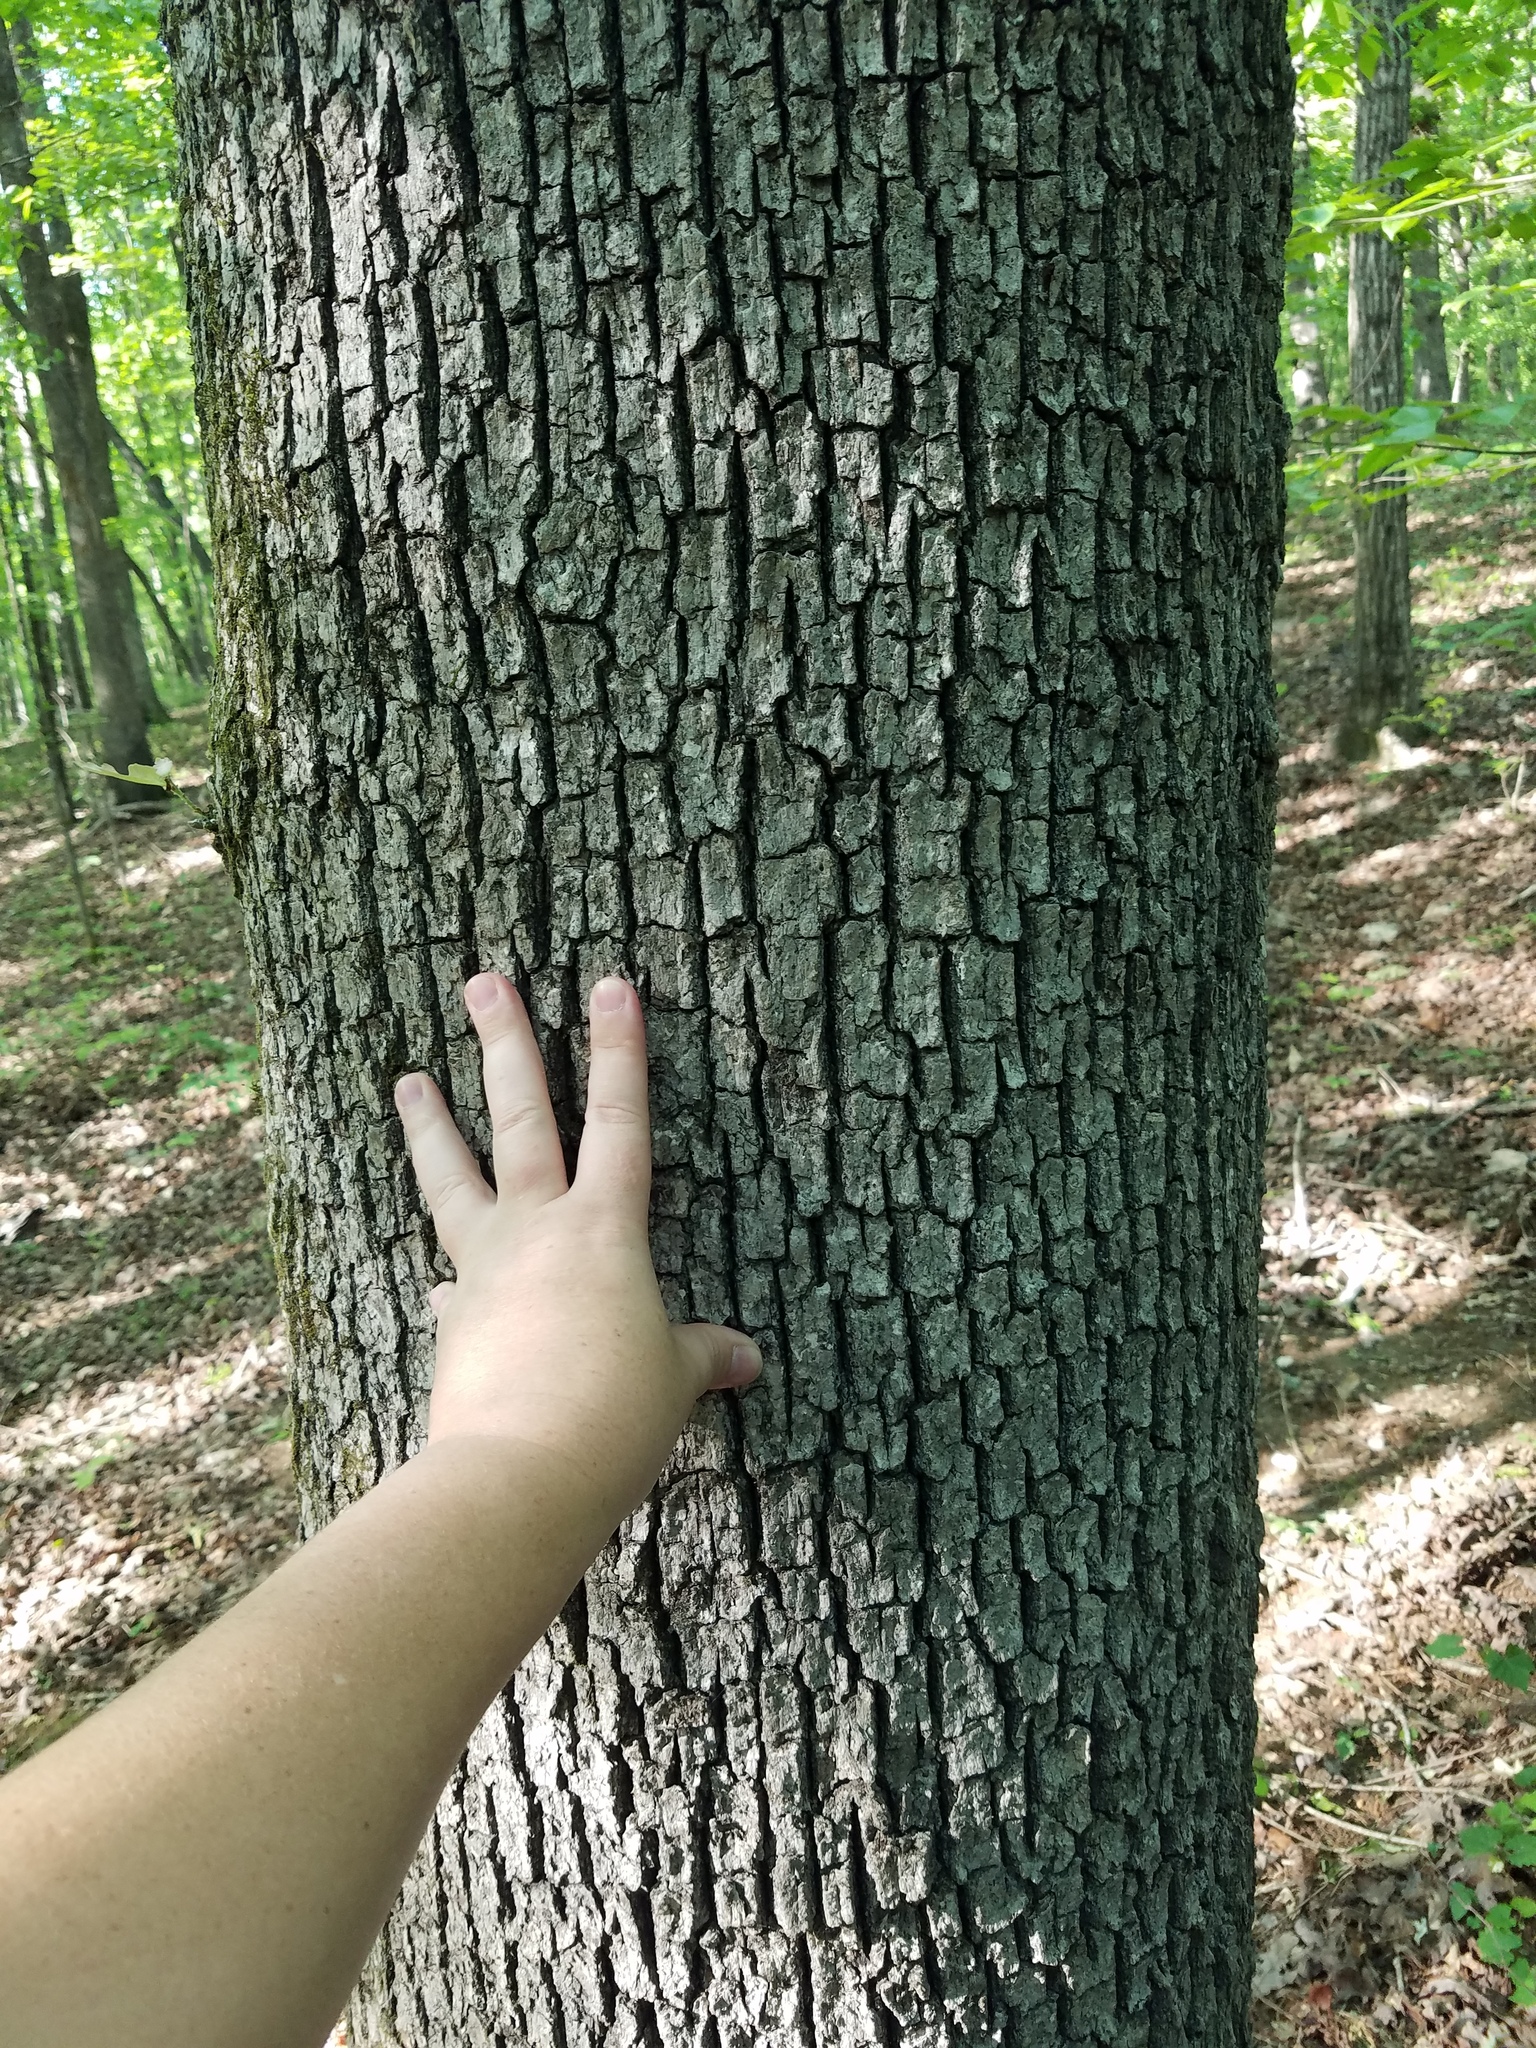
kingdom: Plantae
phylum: Tracheophyta
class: Magnoliopsida
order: Fagales
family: Fagaceae
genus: Quercus
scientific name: Quercus alba
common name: White oak
